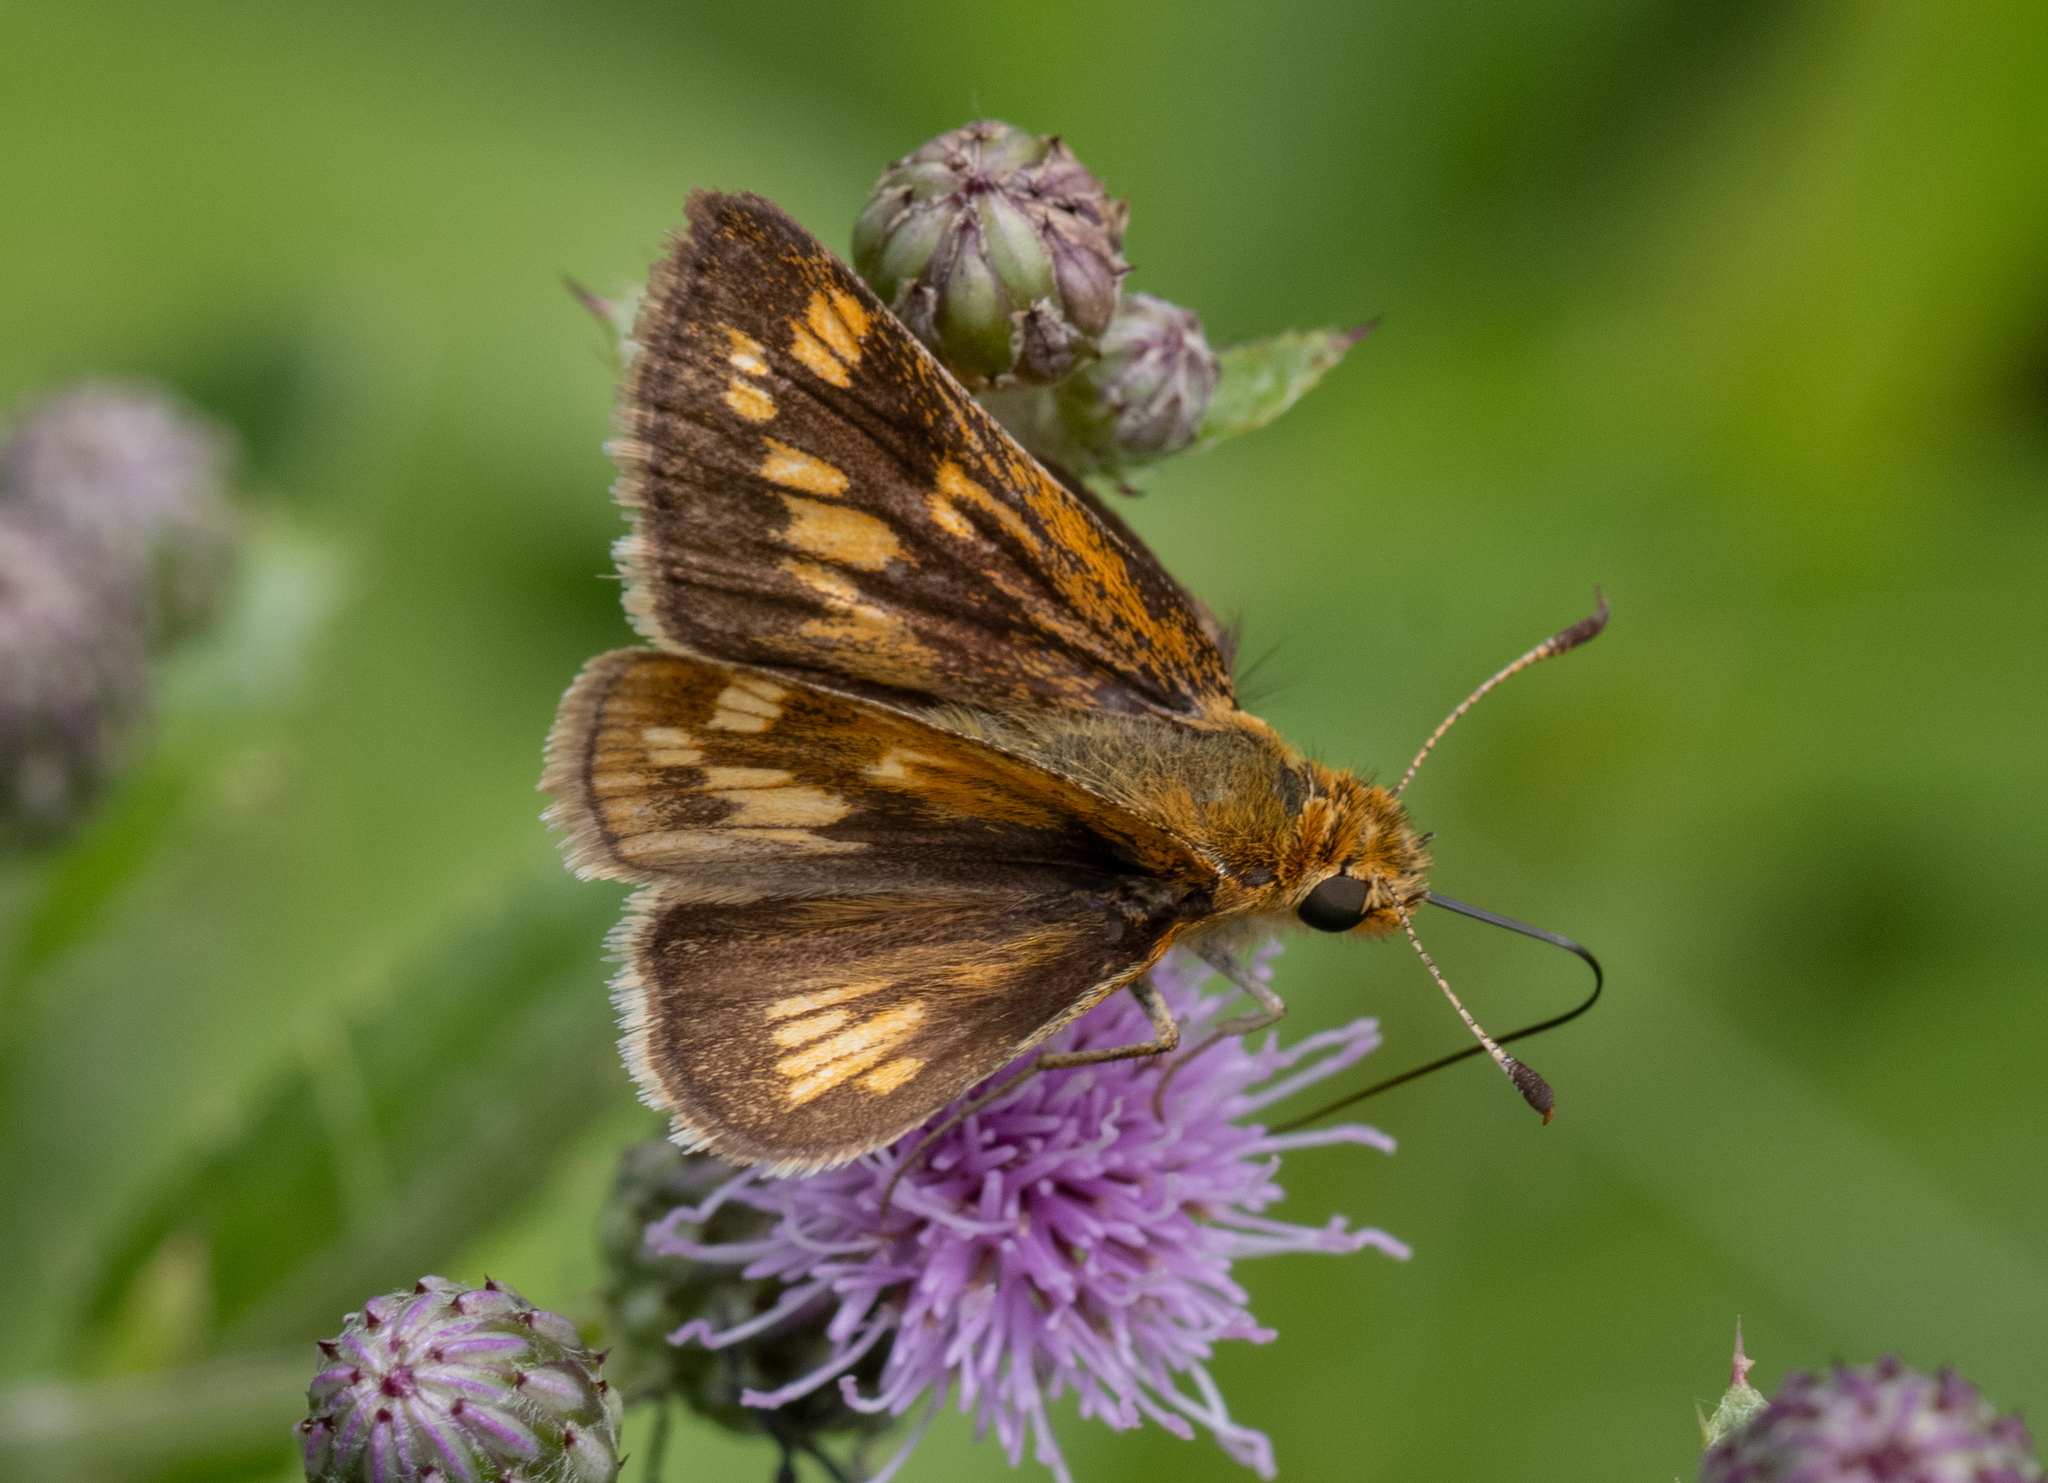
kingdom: Animalia
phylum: Arthropoda
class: Insecta
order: Lepidoptera
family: Hesperiidae
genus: Polites
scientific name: Polites coras
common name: Peck's skipper
